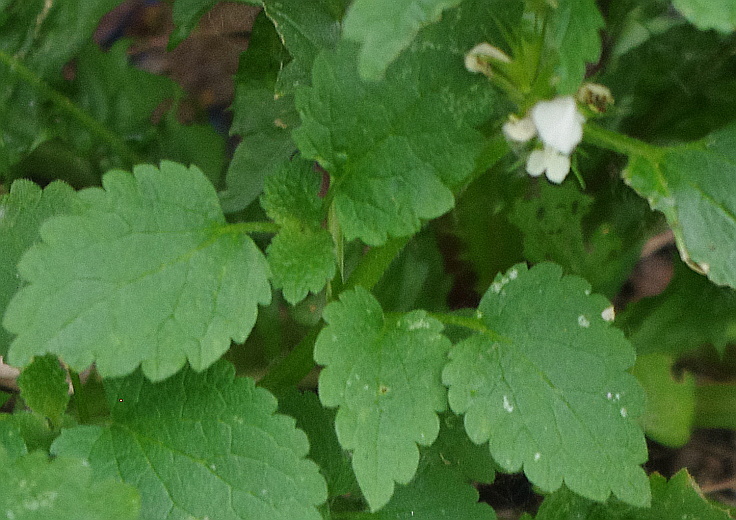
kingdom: Plantae
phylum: Tracheophyta
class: Magnoliopsida
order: Lamiales
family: Lamiaceae
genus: Lamium
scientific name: Lamium album
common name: White dead-nettle
